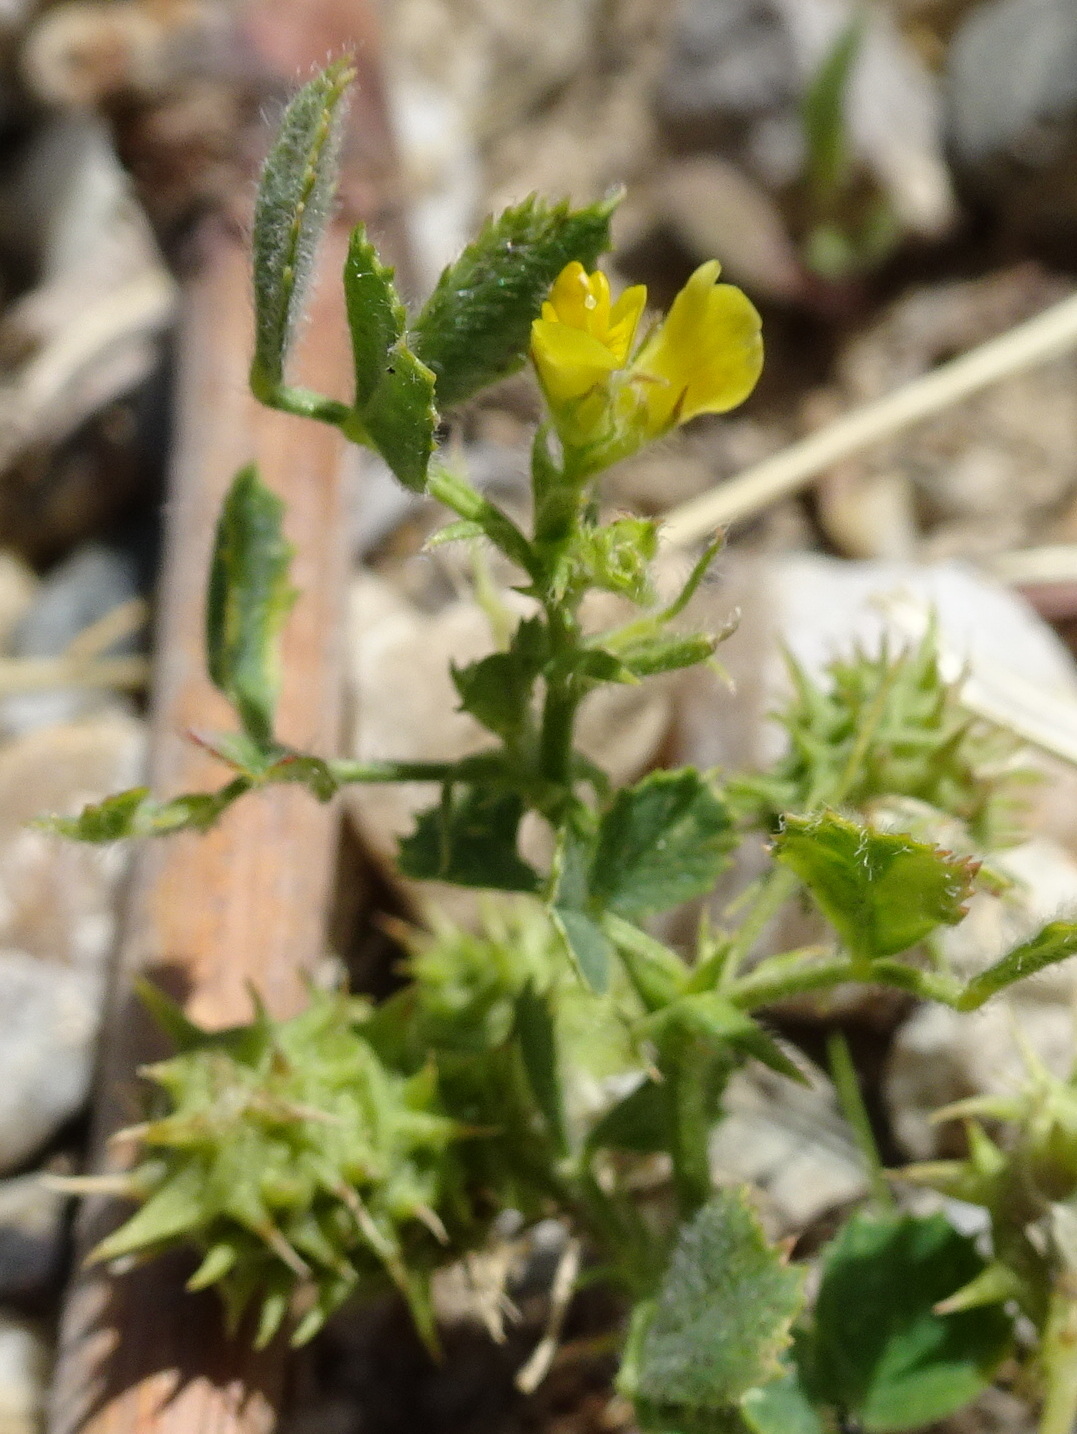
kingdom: Plantae
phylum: Tracheophyta
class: Magnoliopsida
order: Fabales
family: Fabaceae
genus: Medicago
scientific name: Medicago truncatula
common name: Strong-spined medick
